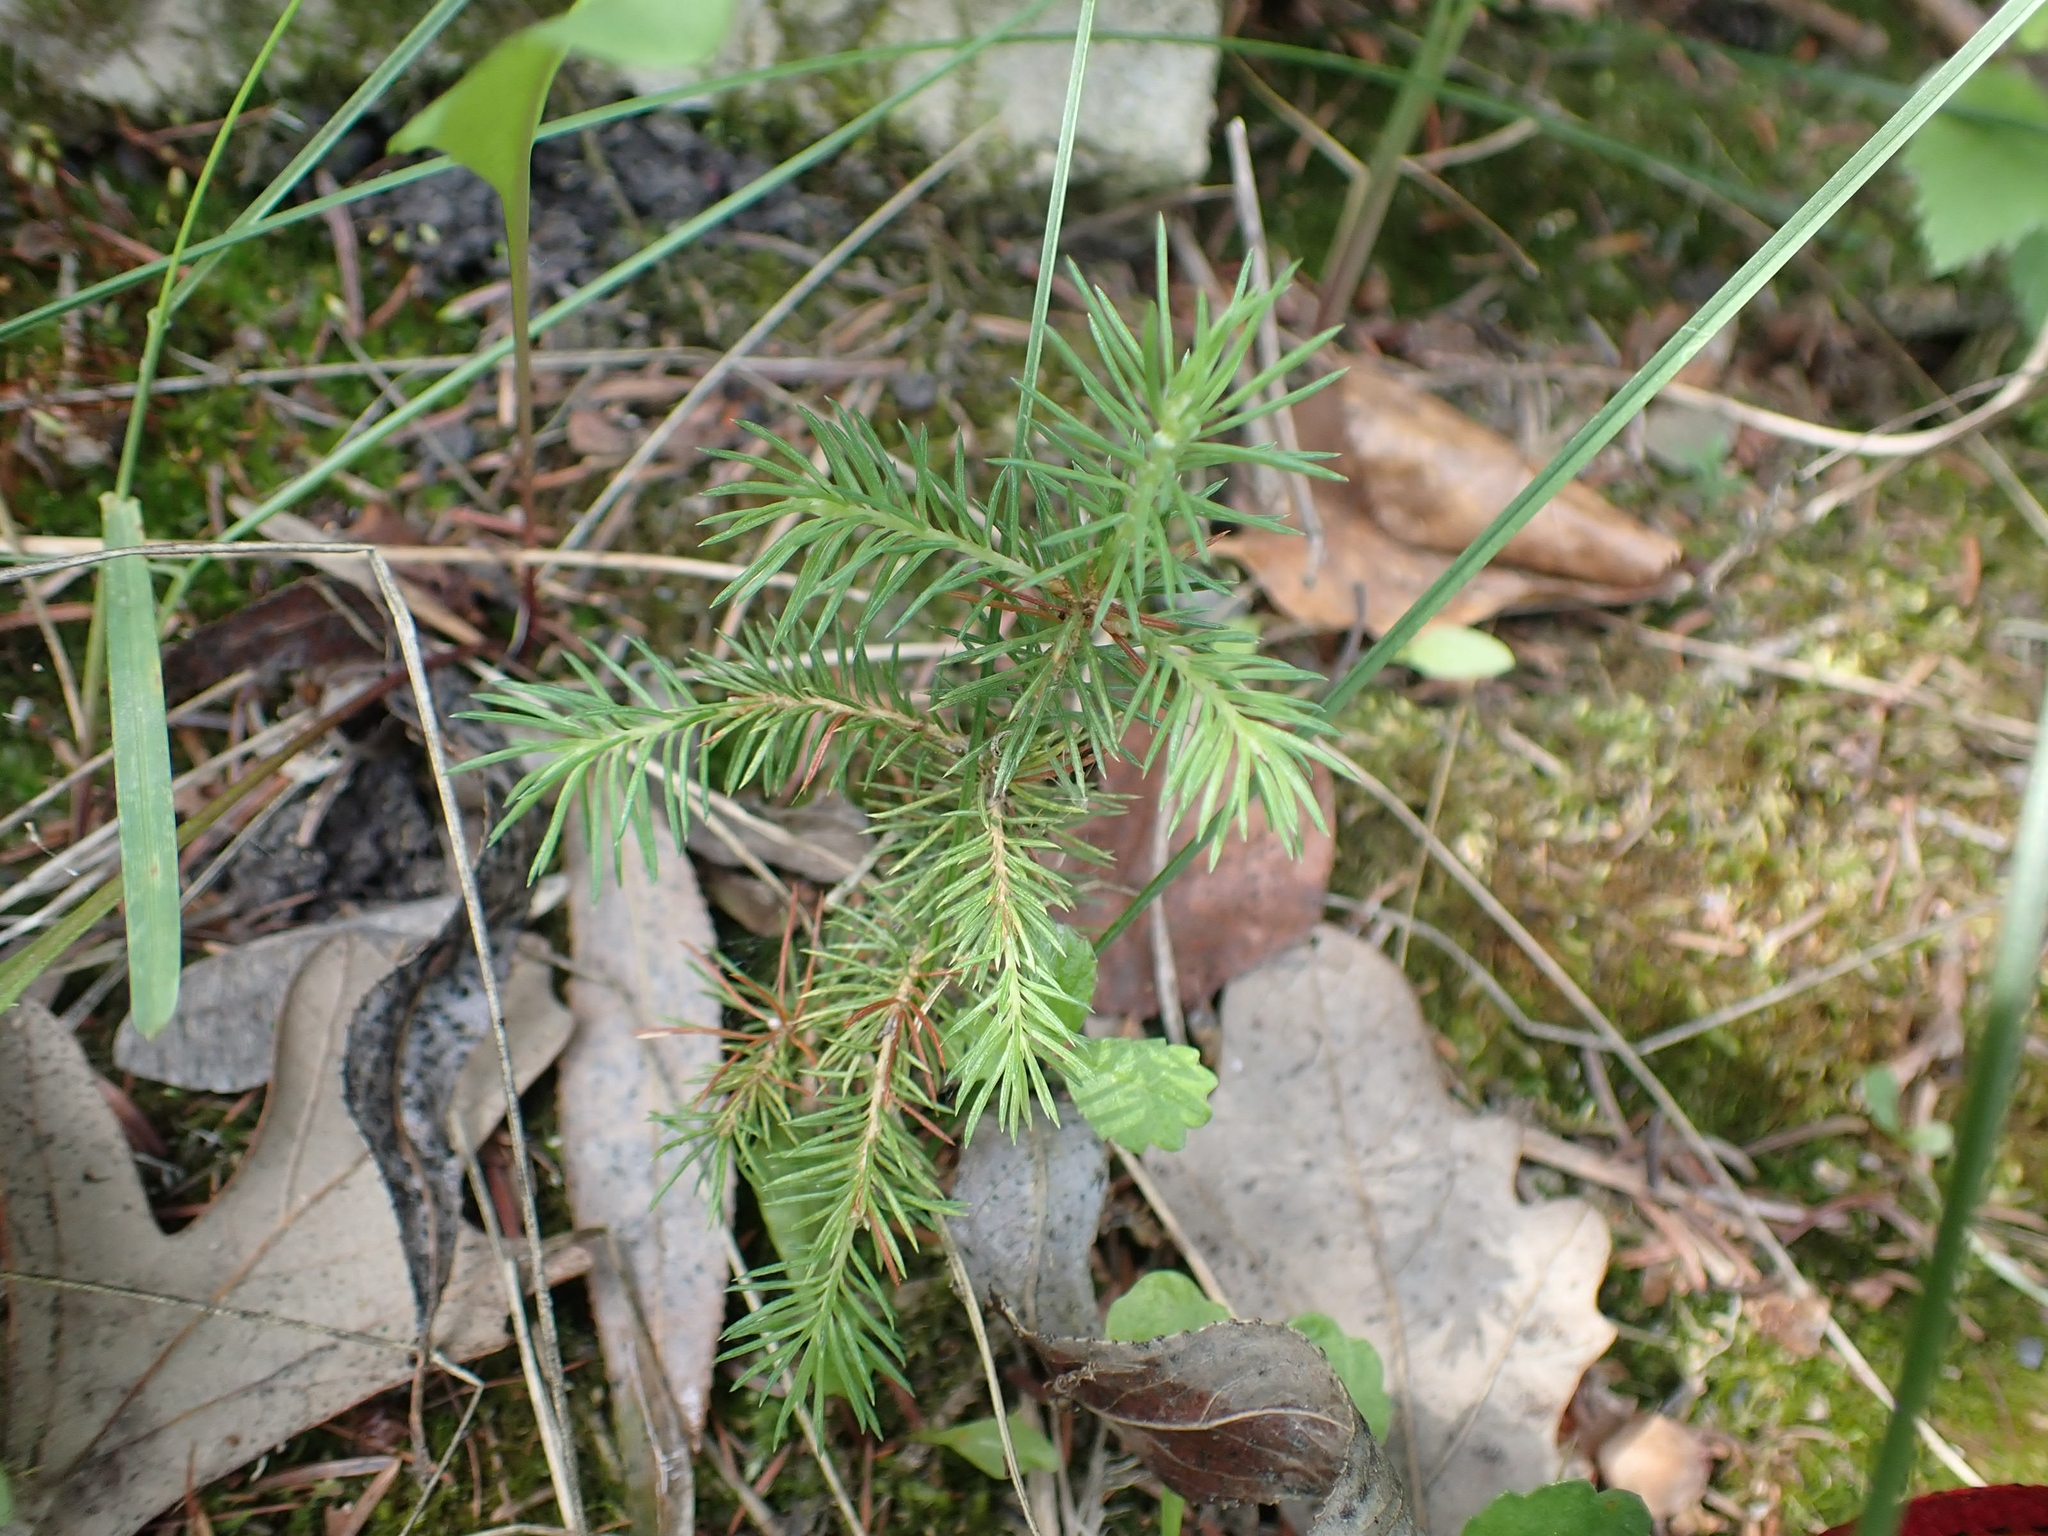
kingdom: Plantae
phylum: Tracheophyta
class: Pinopsida
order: Pinales
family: Pinaceae
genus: Picea
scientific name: Picea glauca
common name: White spruce
